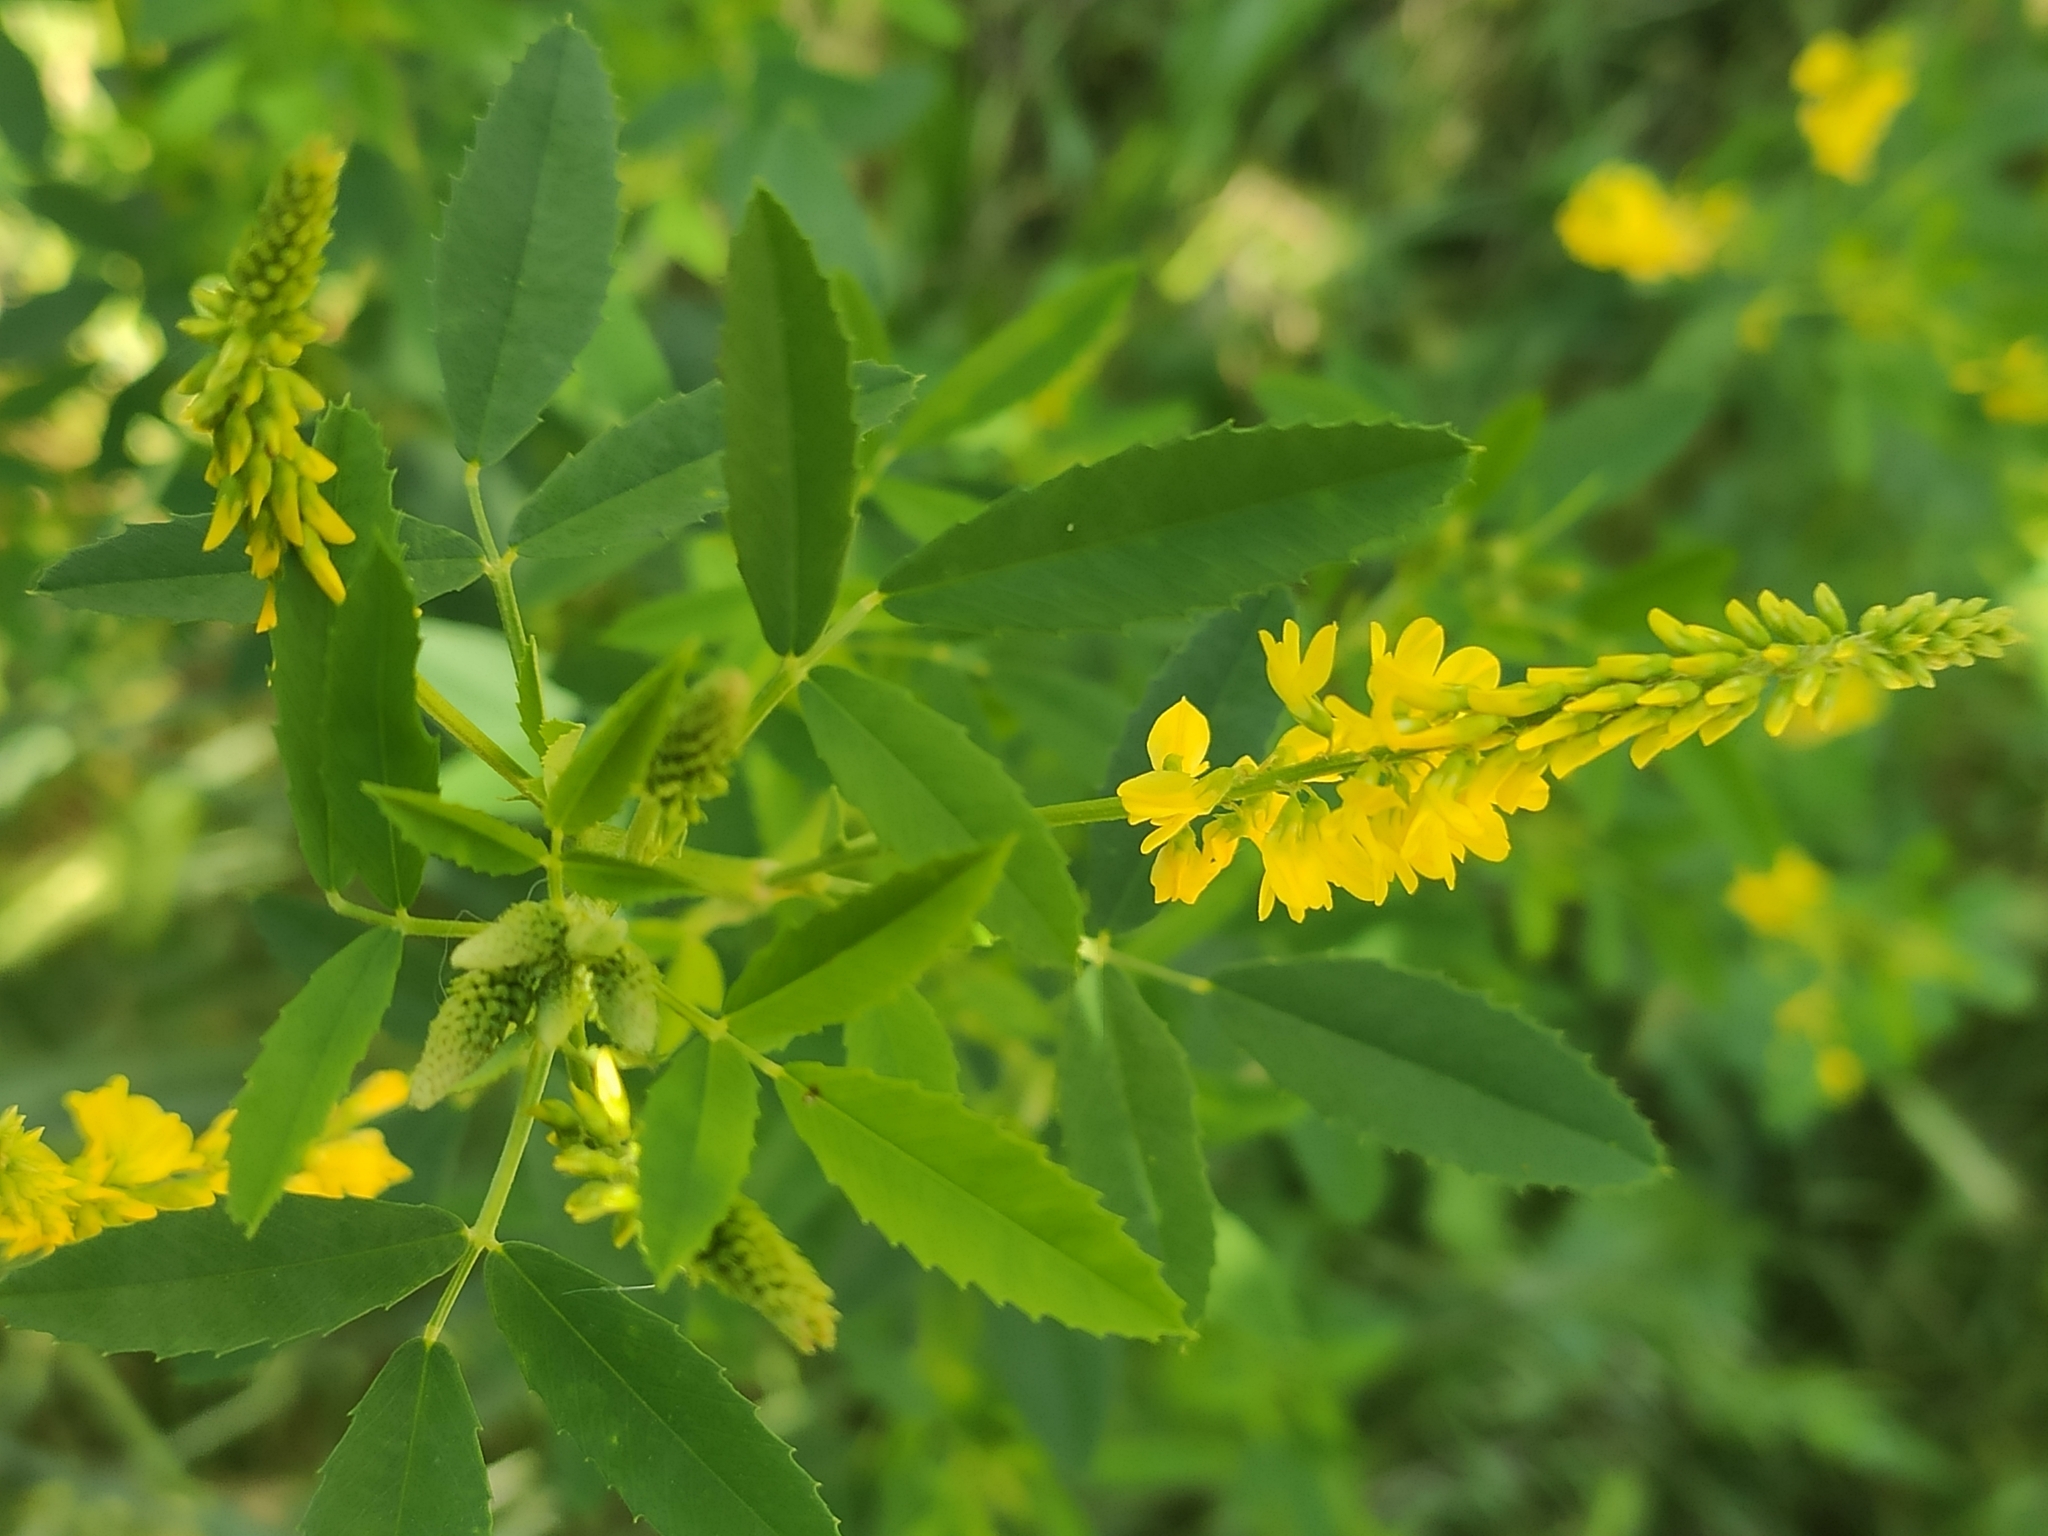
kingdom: Plantae
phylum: Tracheophyta
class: Magnoliopsida
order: Fabales
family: Fabaceae
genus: Melilotus
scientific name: Melilotus officinalis
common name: Sweetclover
